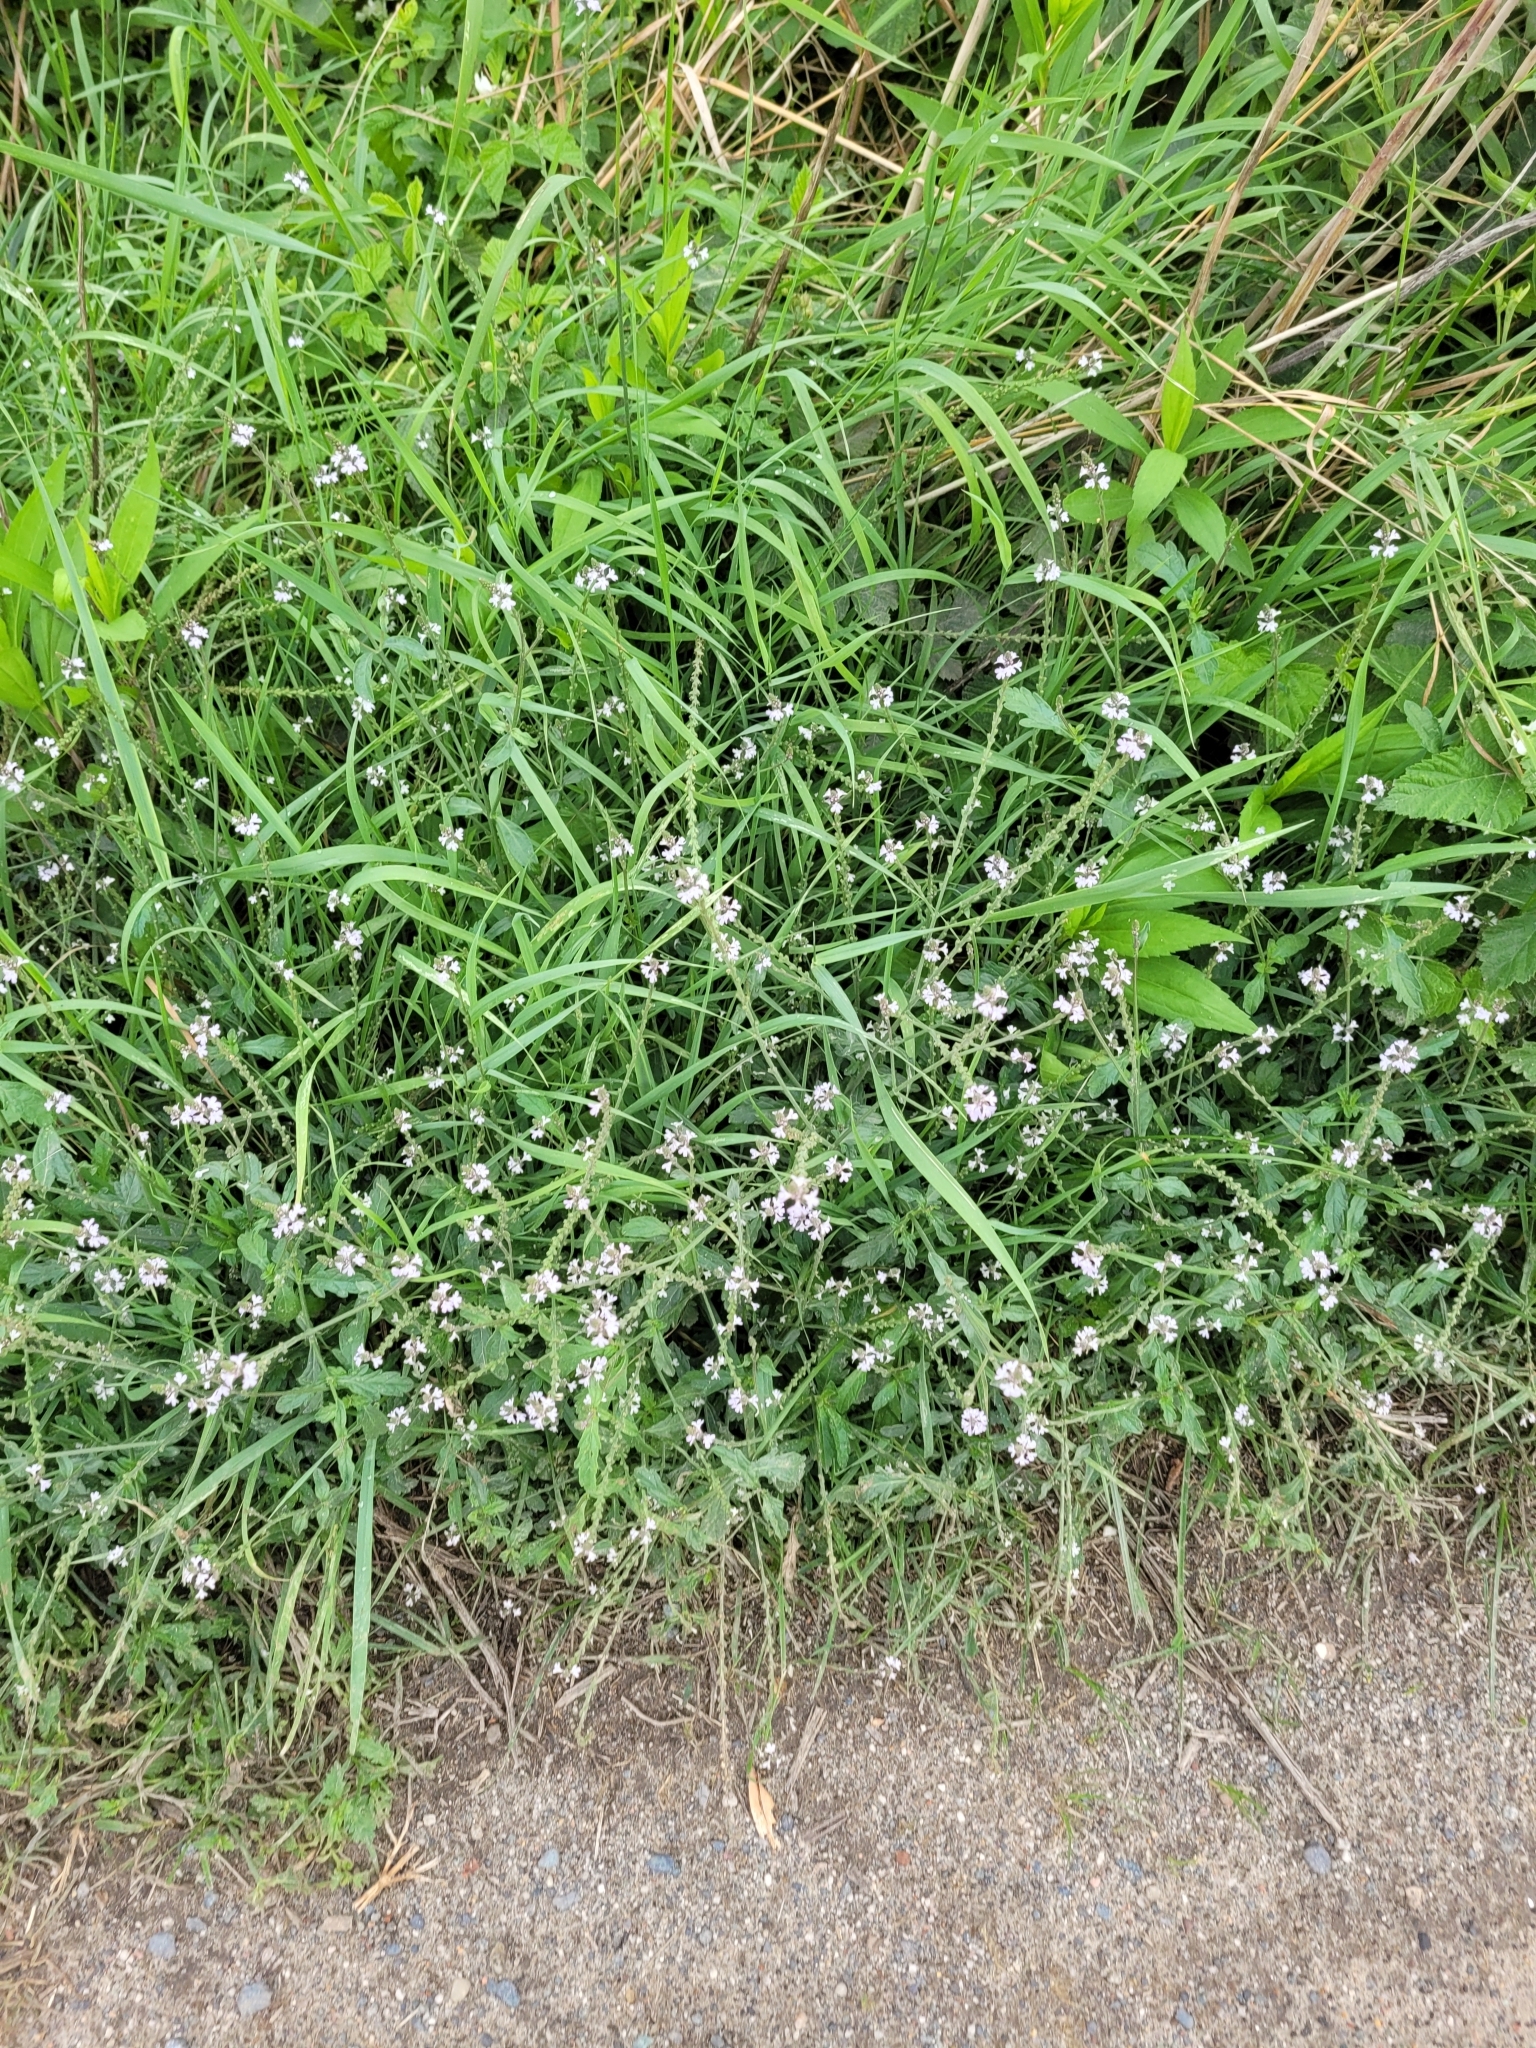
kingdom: Plantae
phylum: Tracheophyta
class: Magnoliopsida
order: Lamiales
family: Verbenaceae
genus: Verbena
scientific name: Verbena officinalis
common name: Vervain
